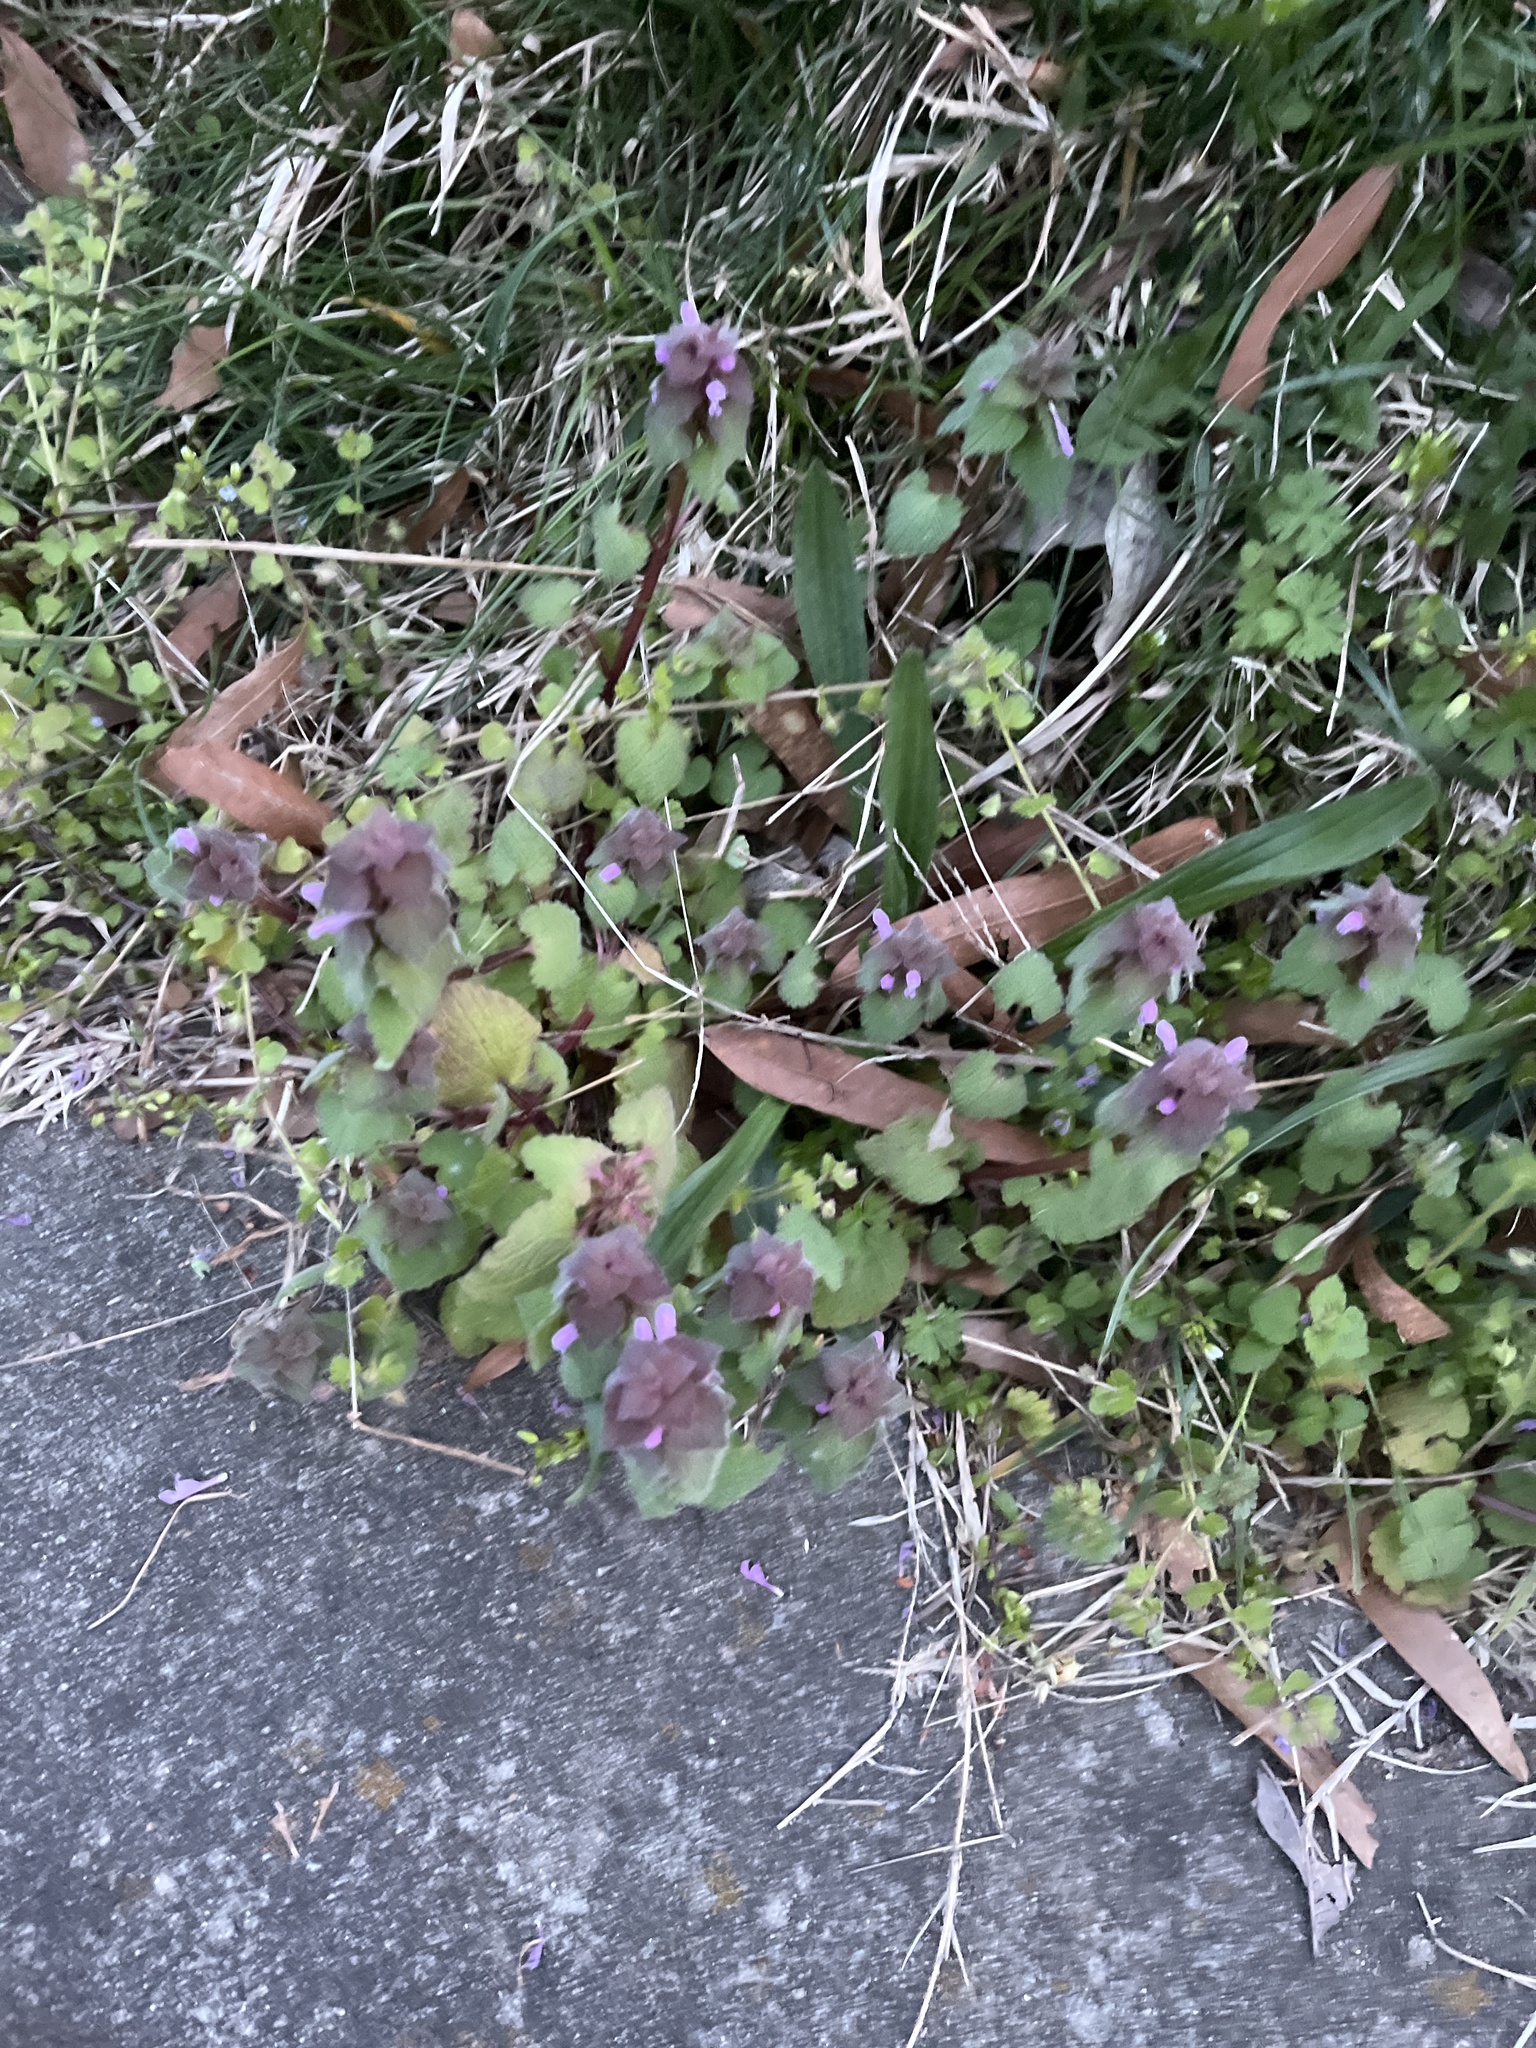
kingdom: Plantae
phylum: Tracheophyta
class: Magnoliopsida
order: Lamiales
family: Lamiaceae
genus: Lamium
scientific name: Lamium purpureum
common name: Red dead-nettle
